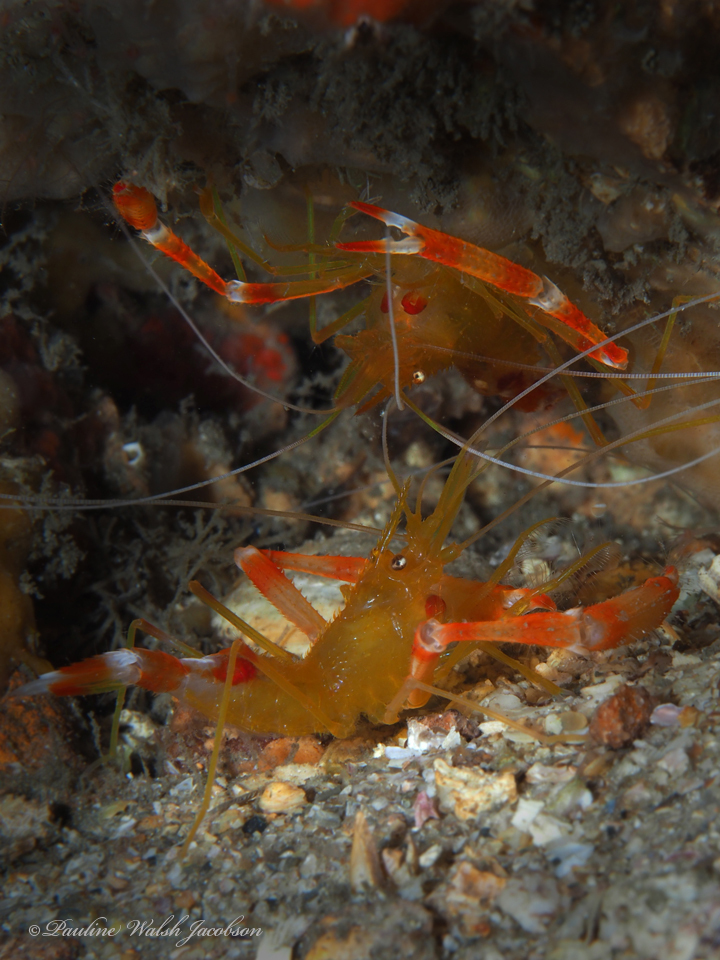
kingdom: Animalia
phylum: Arthropoda
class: Malacostraca
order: Decapoda
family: Stenopodidae
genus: Stenopus
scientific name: Stenopus scutellatus
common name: Golden coral shrimp
